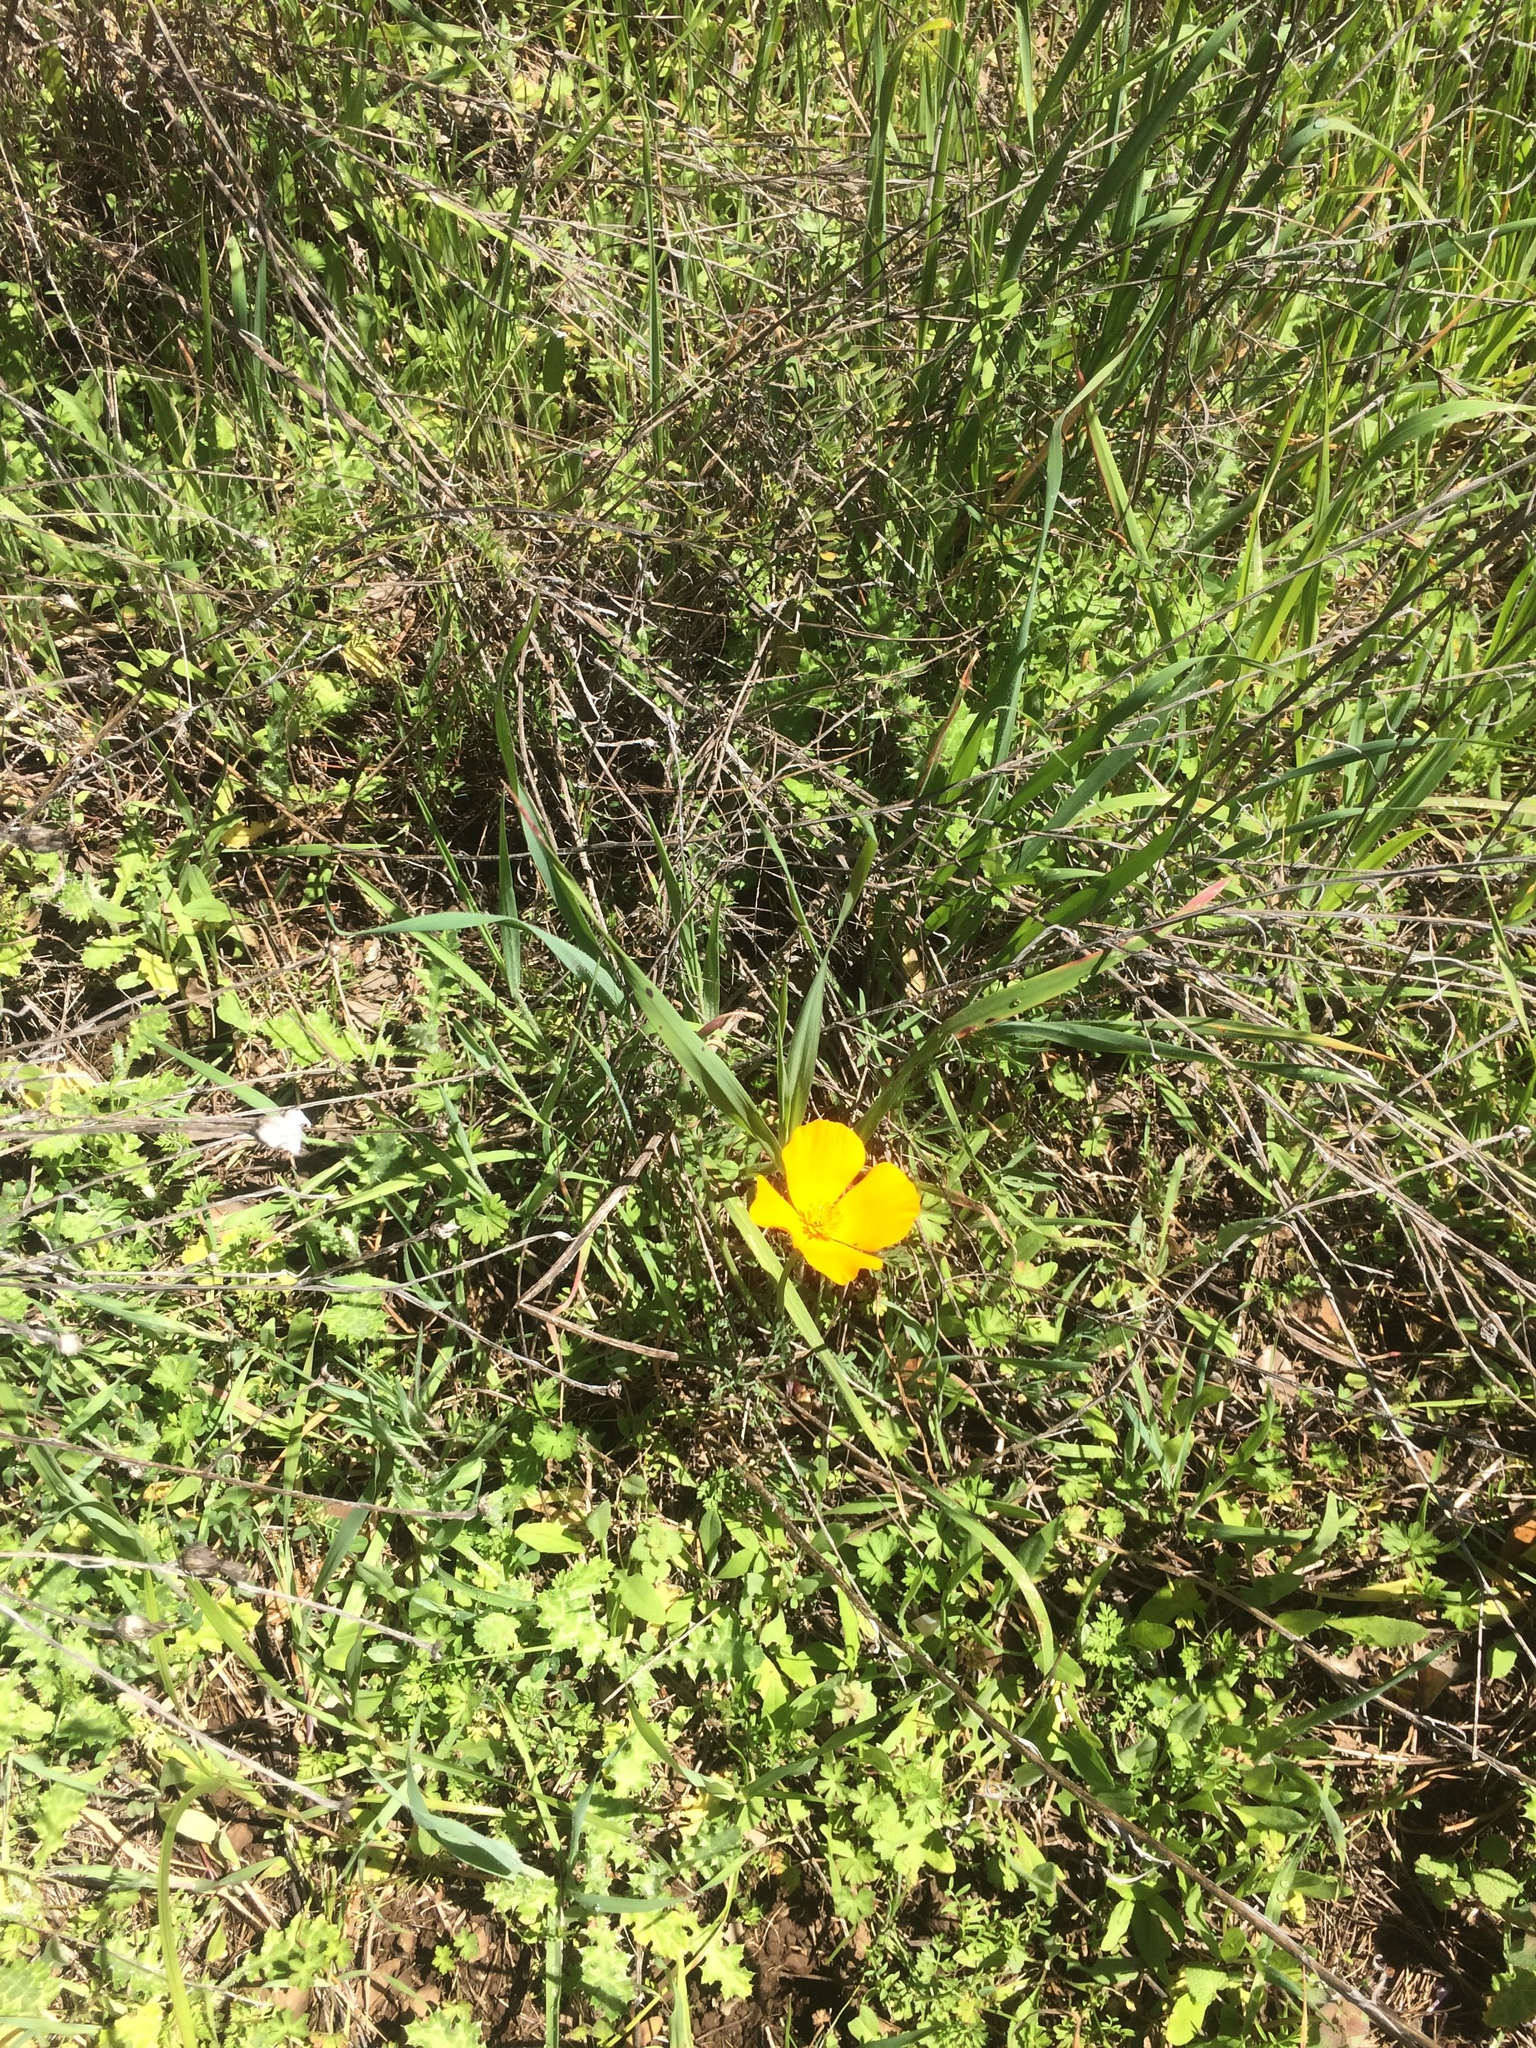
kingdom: Plantae
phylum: Tracheophyta
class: Magnoliopsida
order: Ranunculales
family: Papaveraceae
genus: Eschscholzia
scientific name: Eschscholzia californica
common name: California poppy
